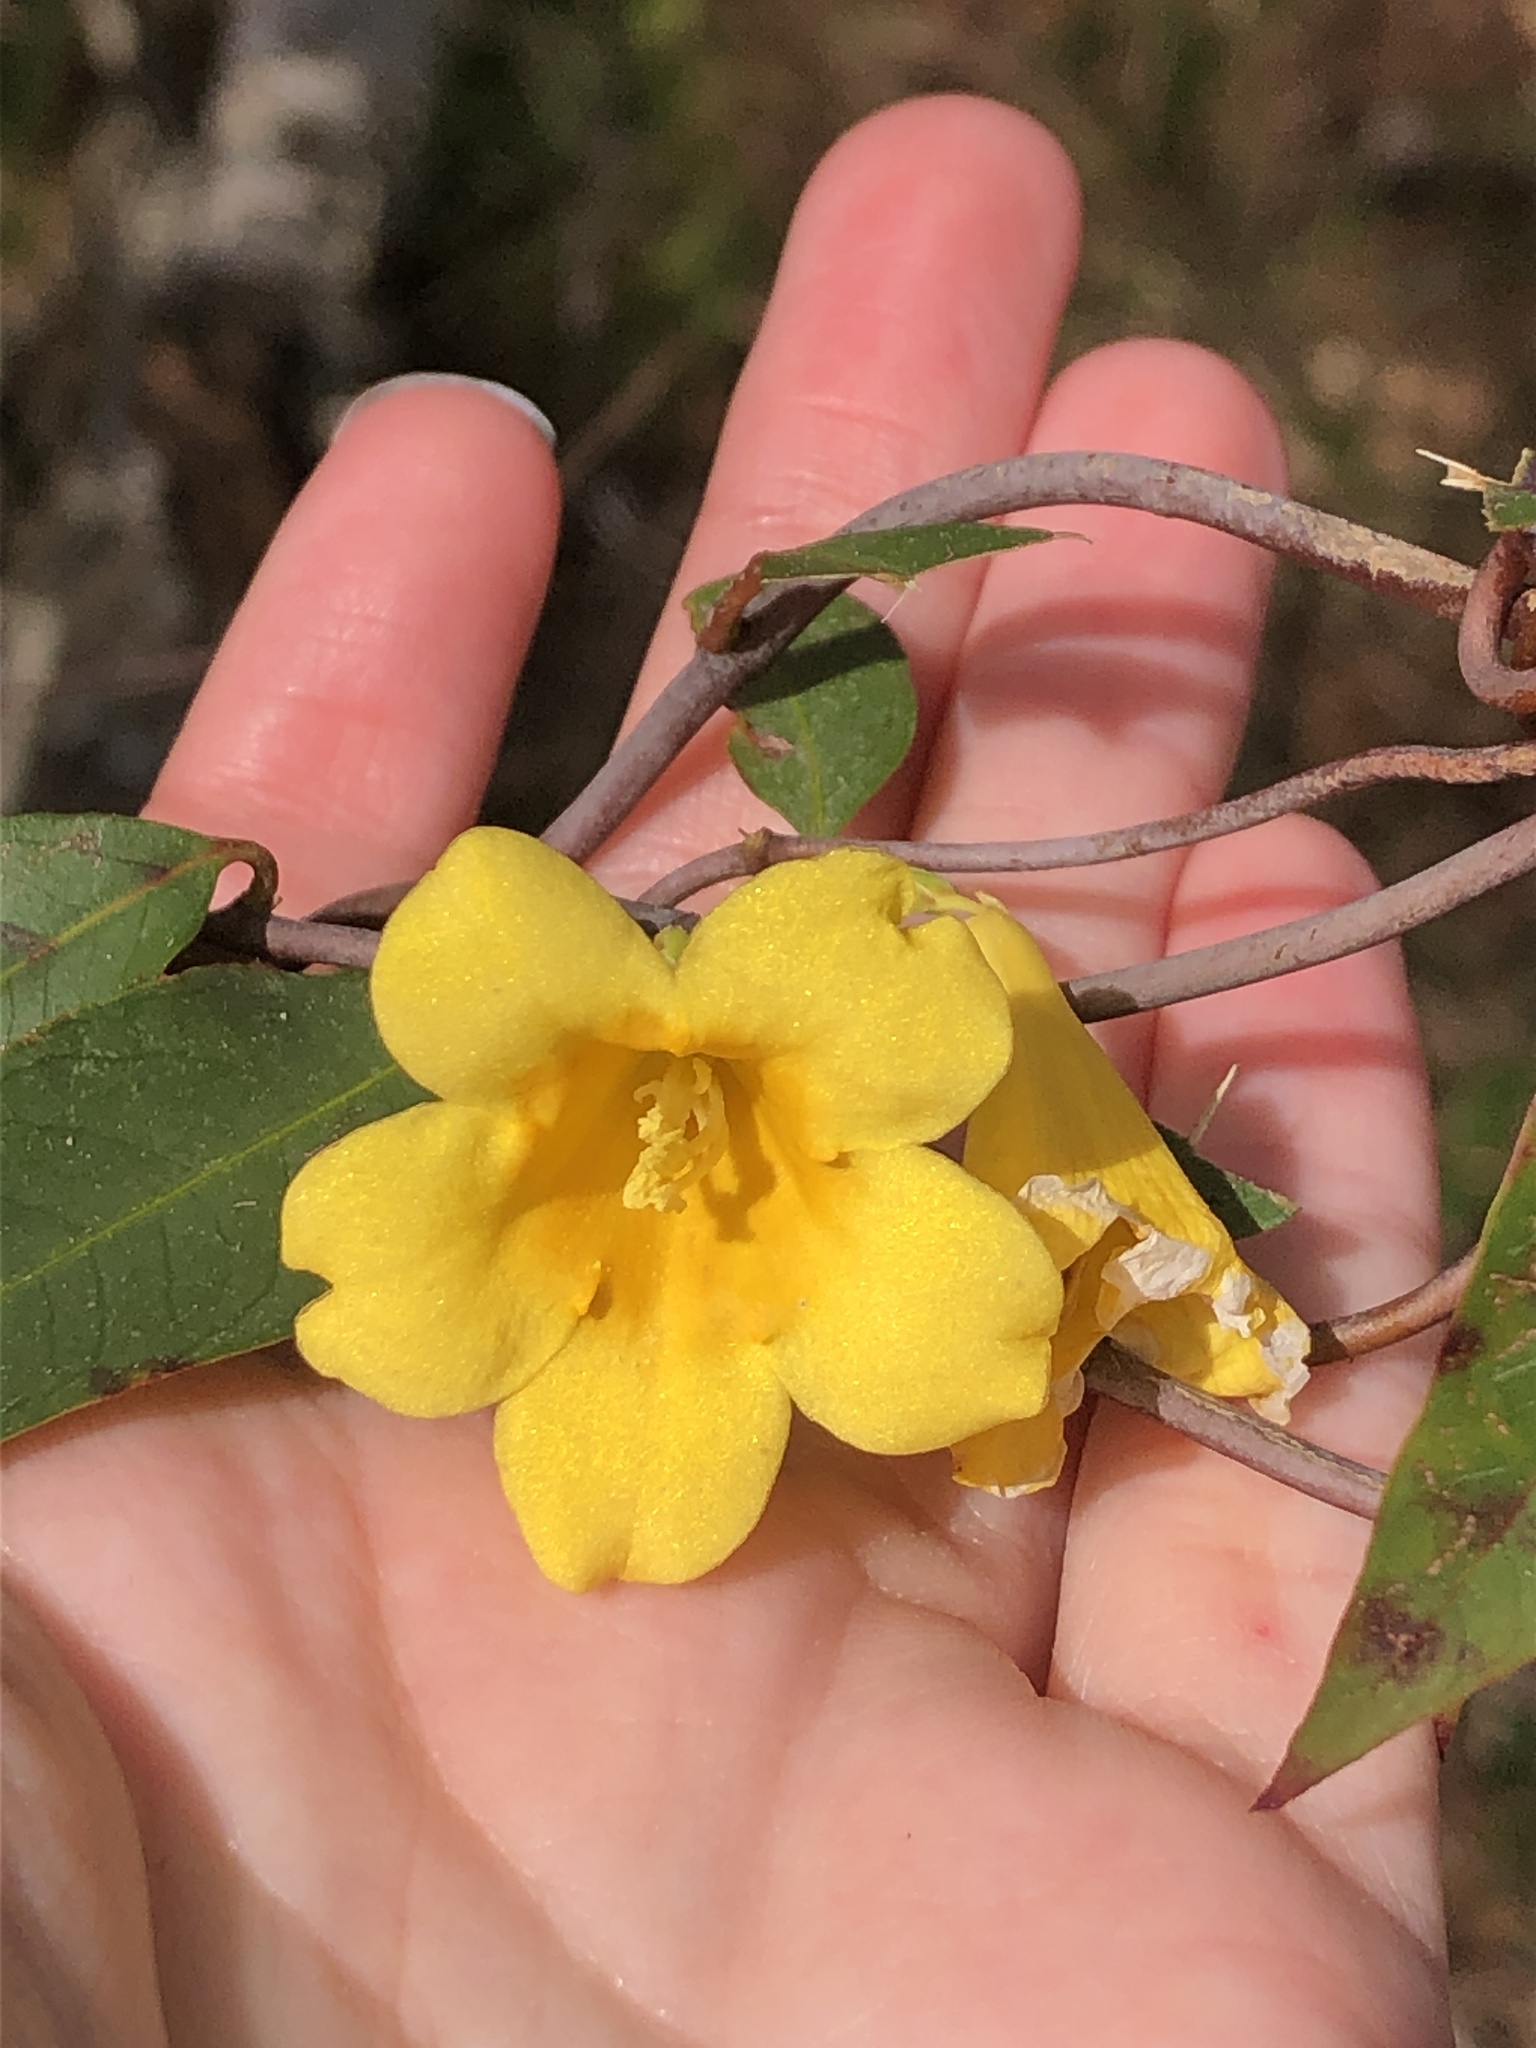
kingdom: Plantae
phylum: Tracheophyta
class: Magnoliopsida
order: Gentianales
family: Gelsemiaceae
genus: Gelsemium
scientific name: Gelsemium sempervirens
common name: Carolina-jasmine
